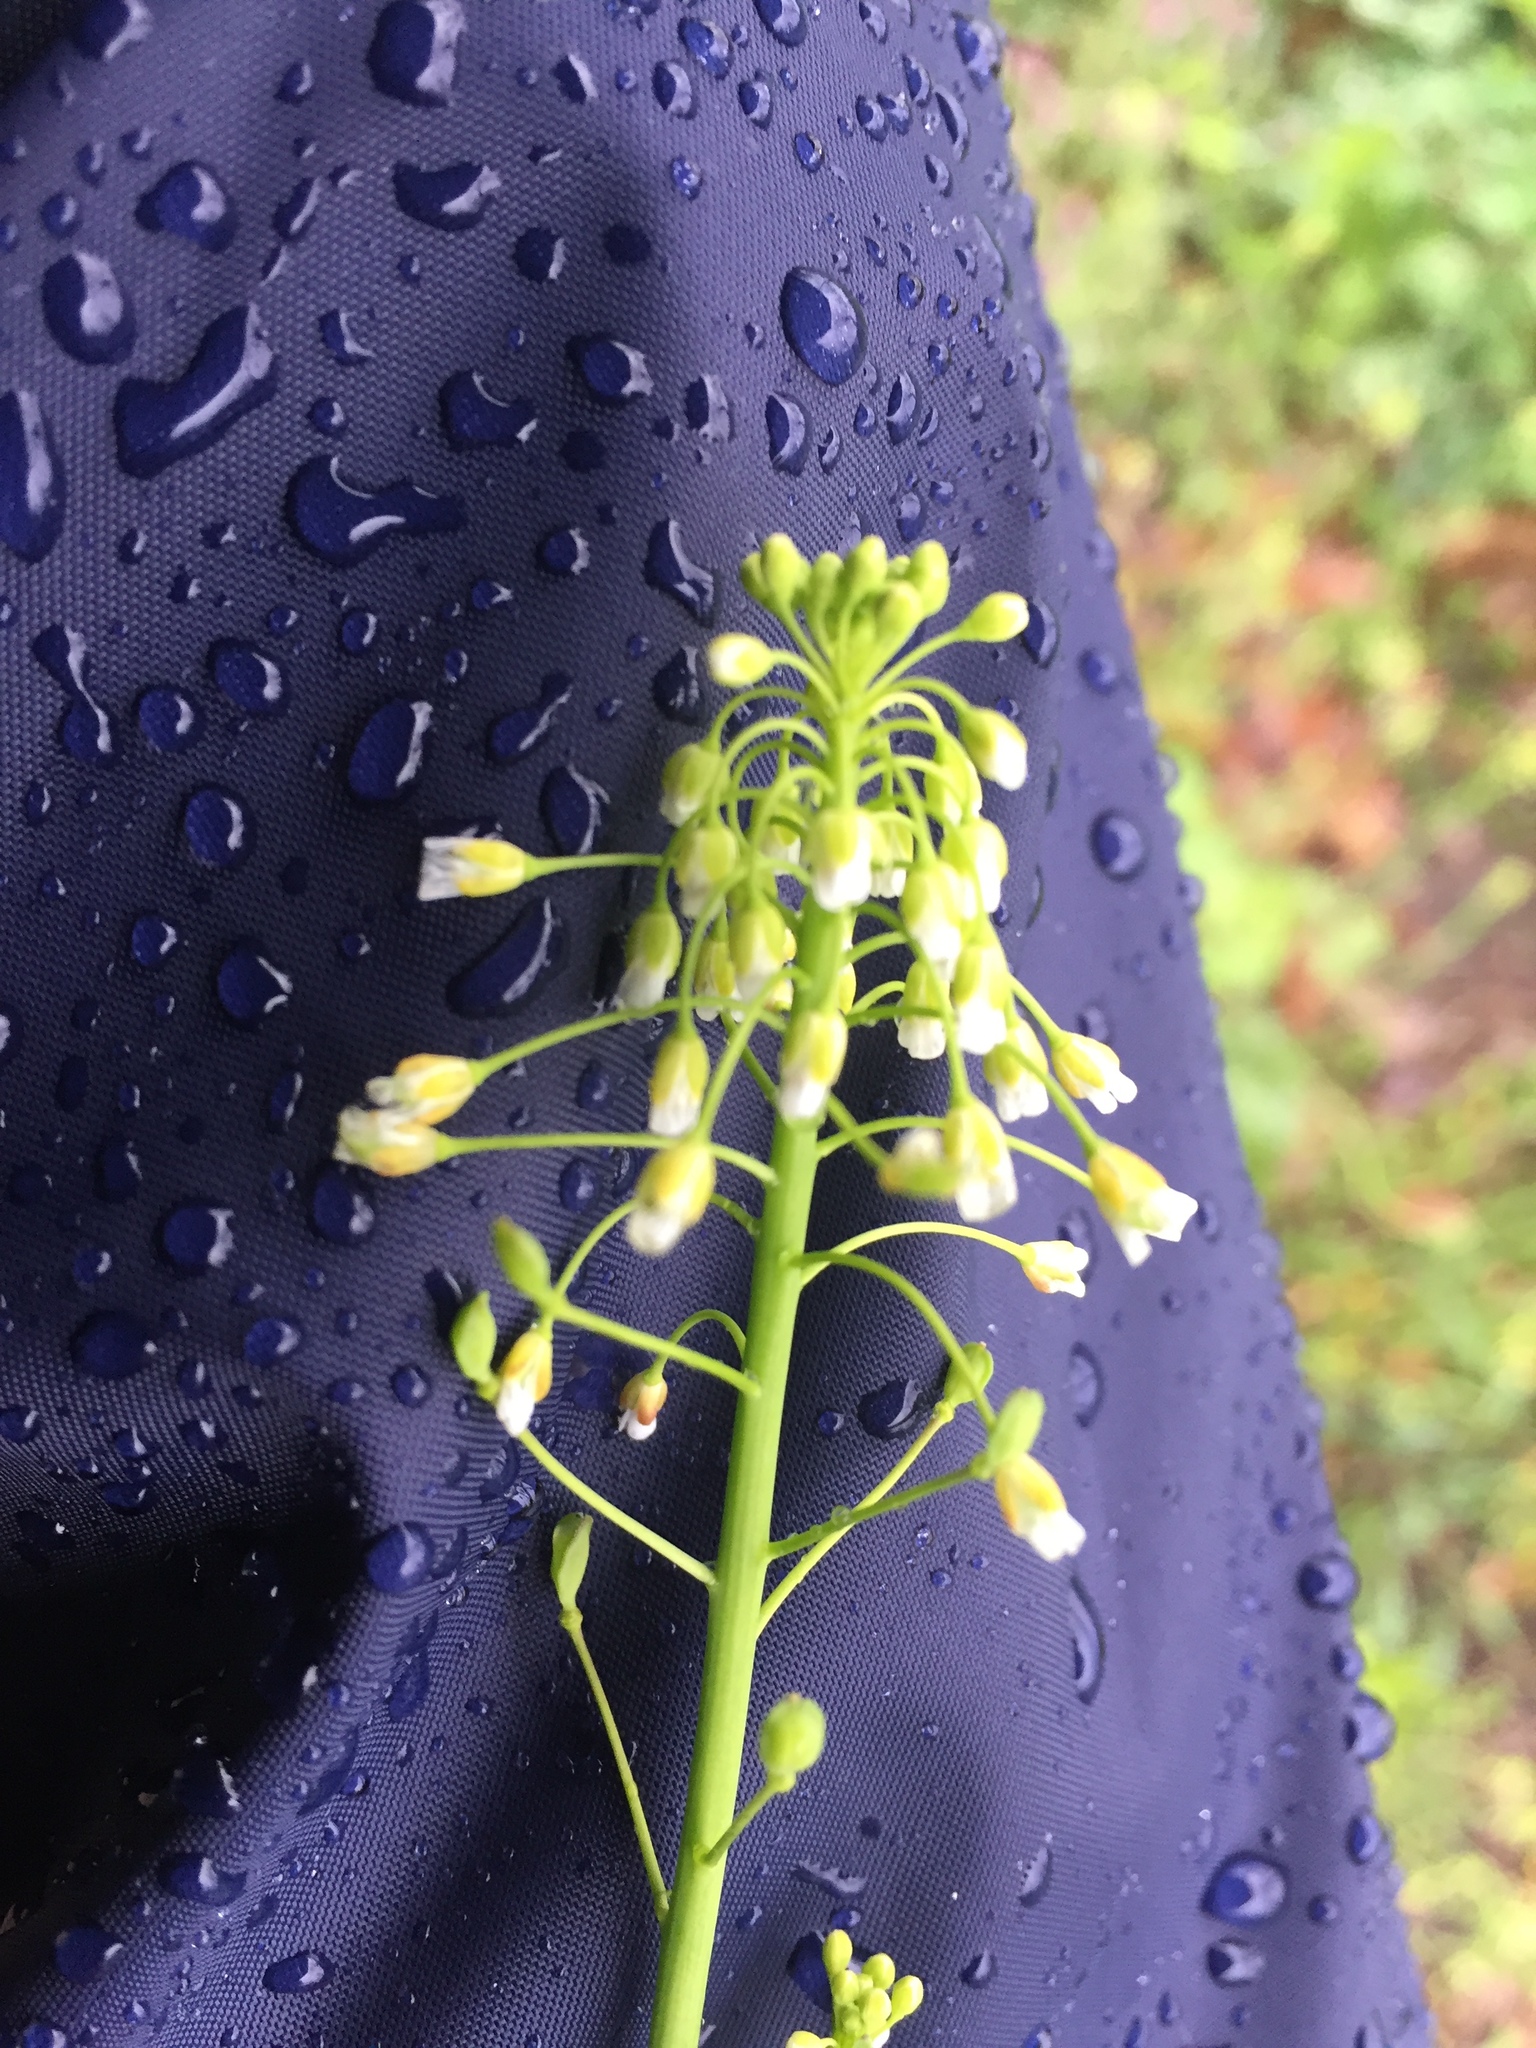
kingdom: Plantae
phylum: Tracheophyta
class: Magnoliopsida
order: Brassicales
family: Brassicaceae
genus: Mummenhoffia
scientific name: Mummenhoffia alliacea
